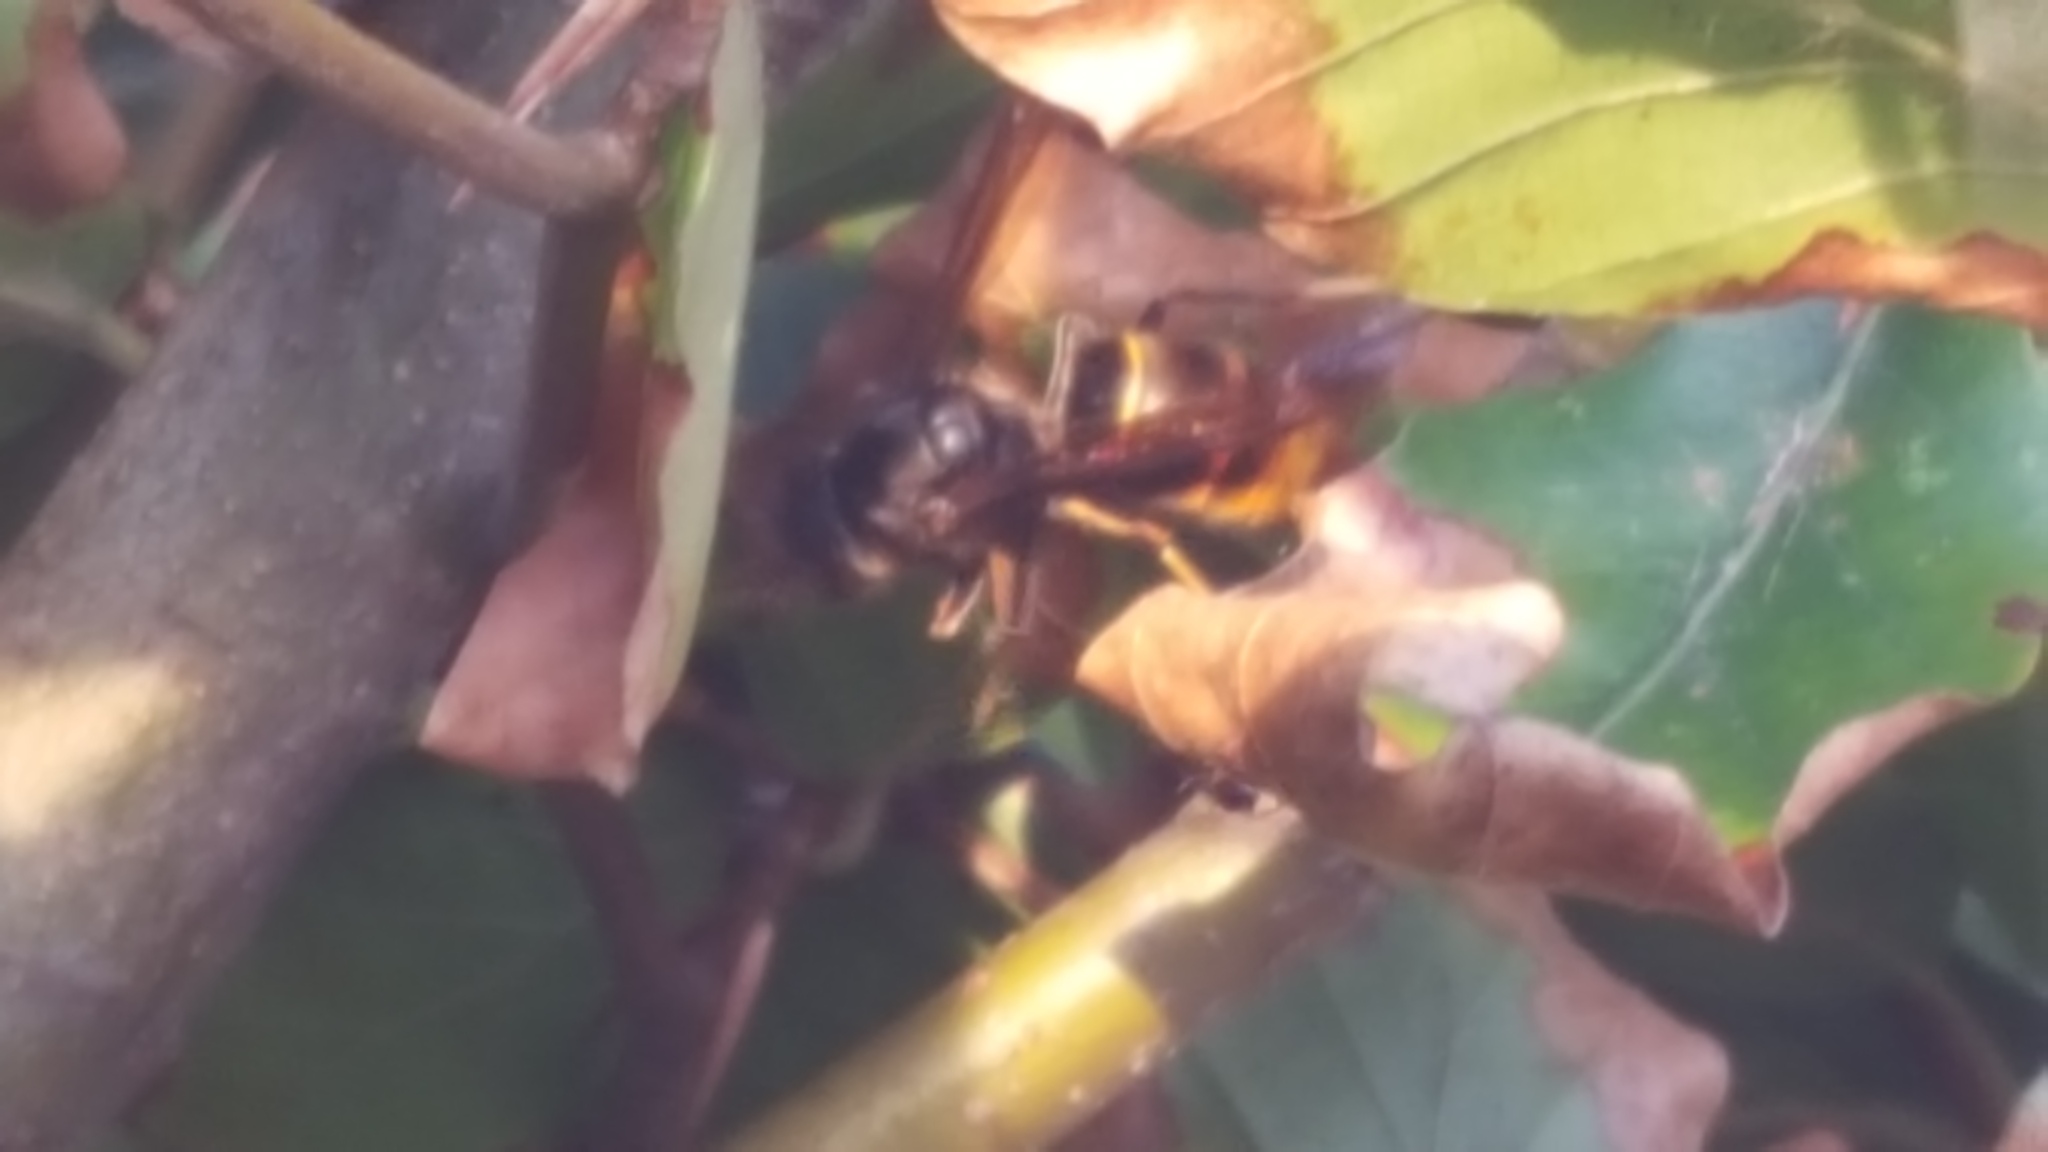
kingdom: Animalia
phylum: Arthropoda
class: Insecta
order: Hymenoptera
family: Vespidae
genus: Vespa
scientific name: Vespa velutina
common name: Asian hornet
